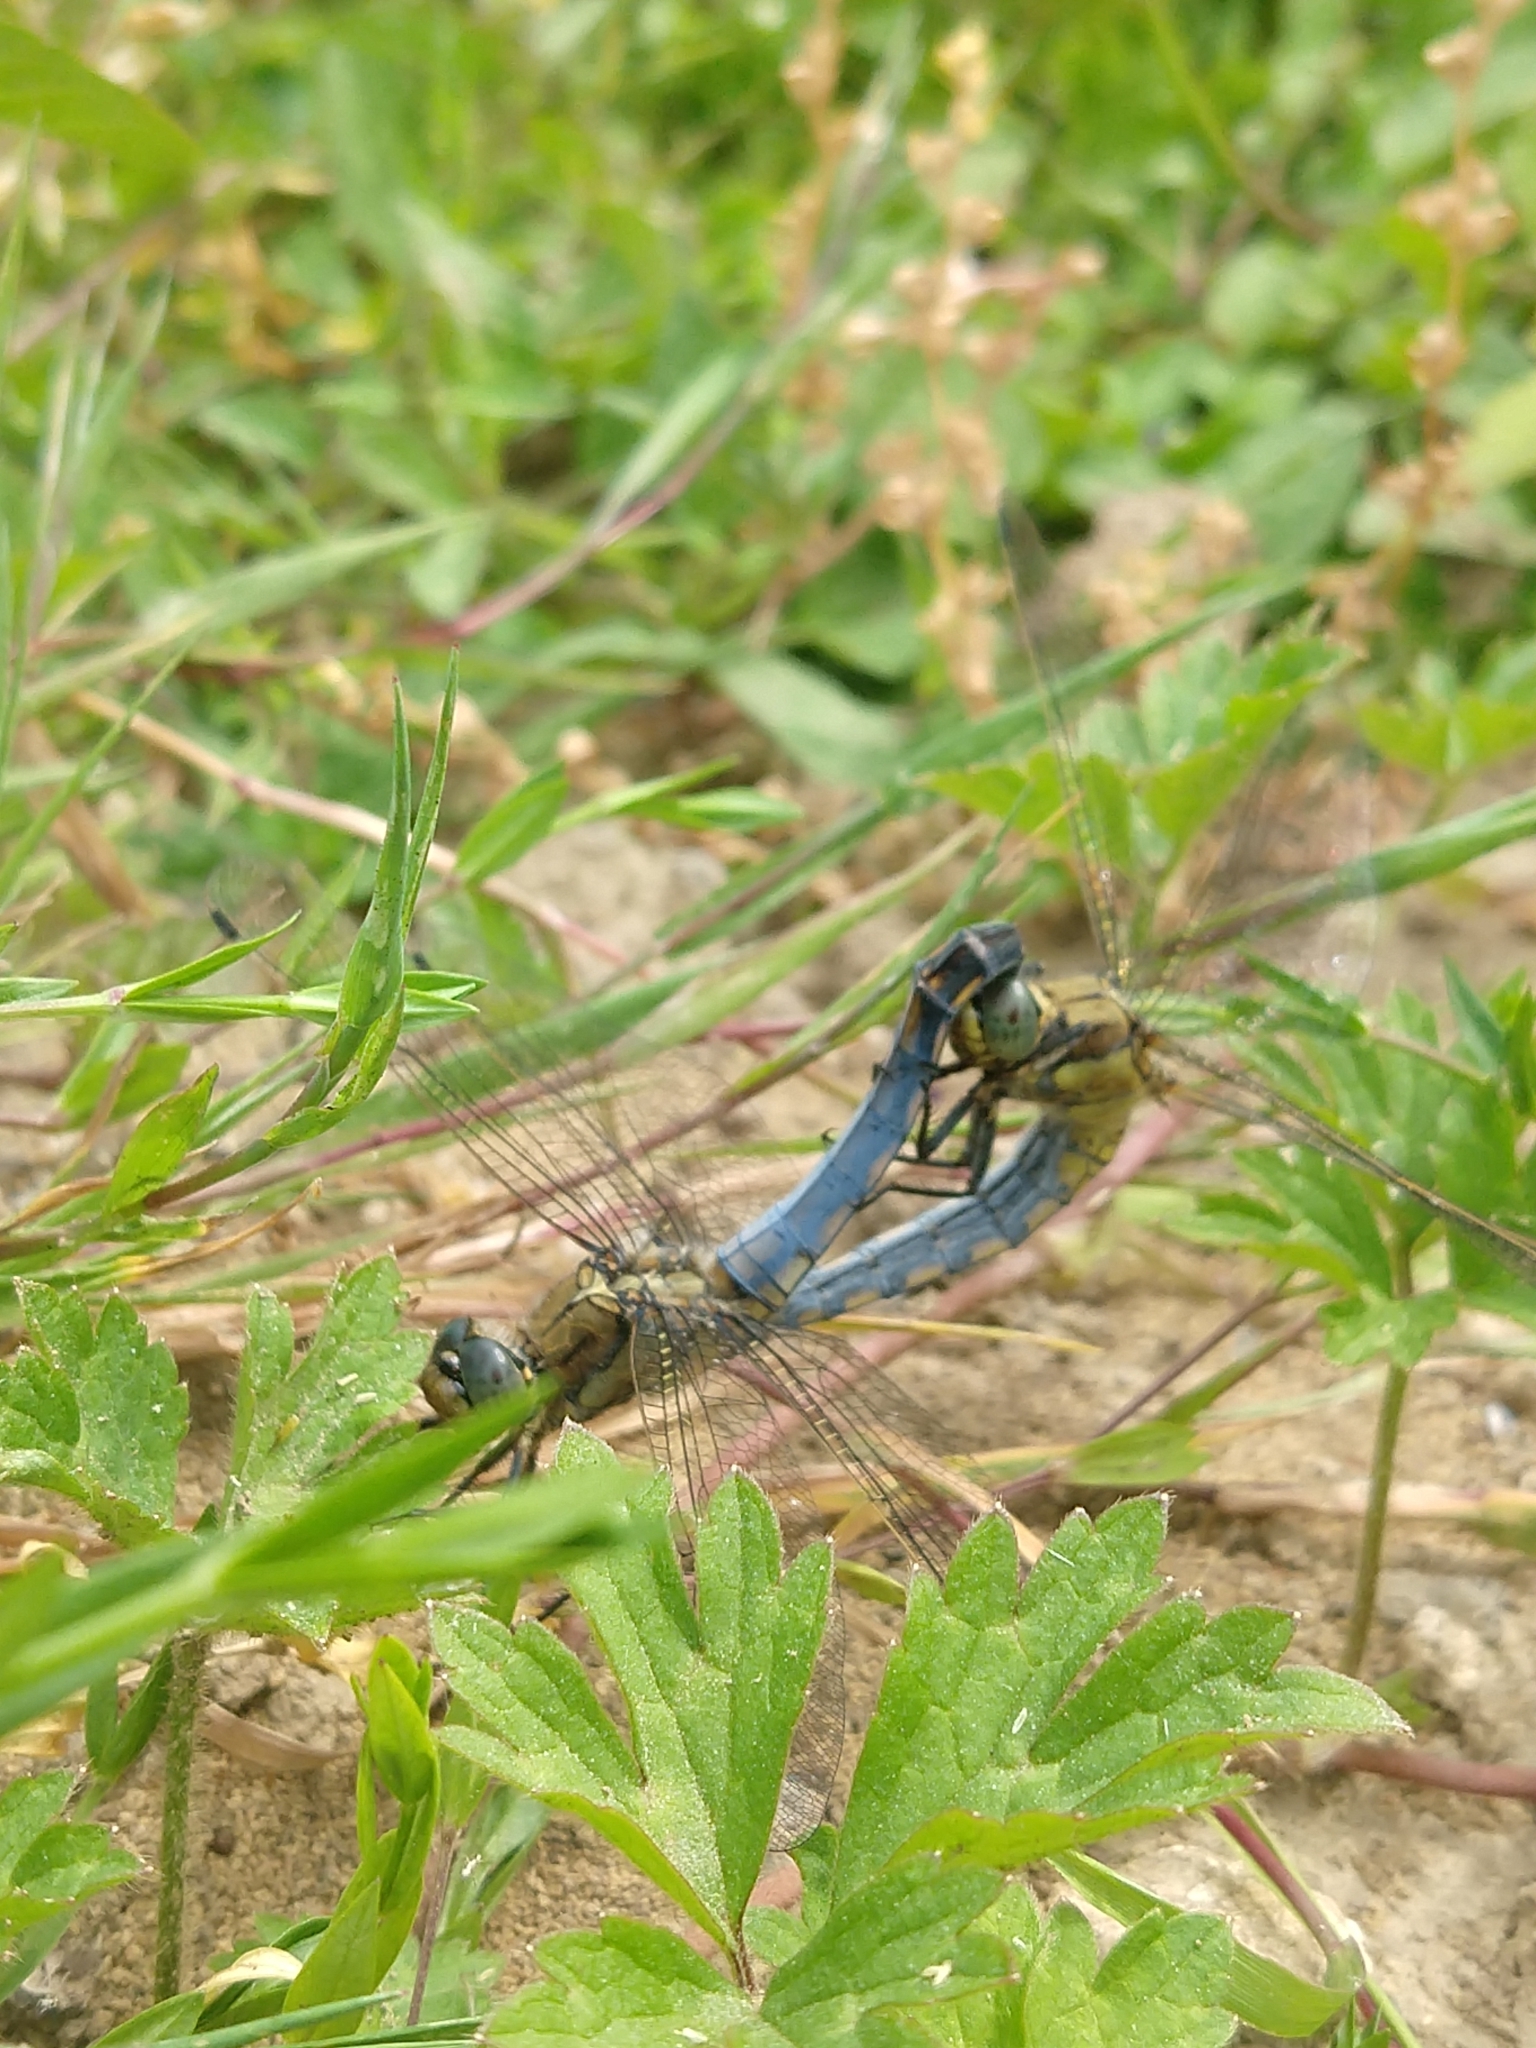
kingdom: Animalia
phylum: Arthropoda
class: Insecta
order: Odonata
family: Libellulidae
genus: Orthetrum
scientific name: Orthetrum cancellatum
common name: Black-tailed skimmer
